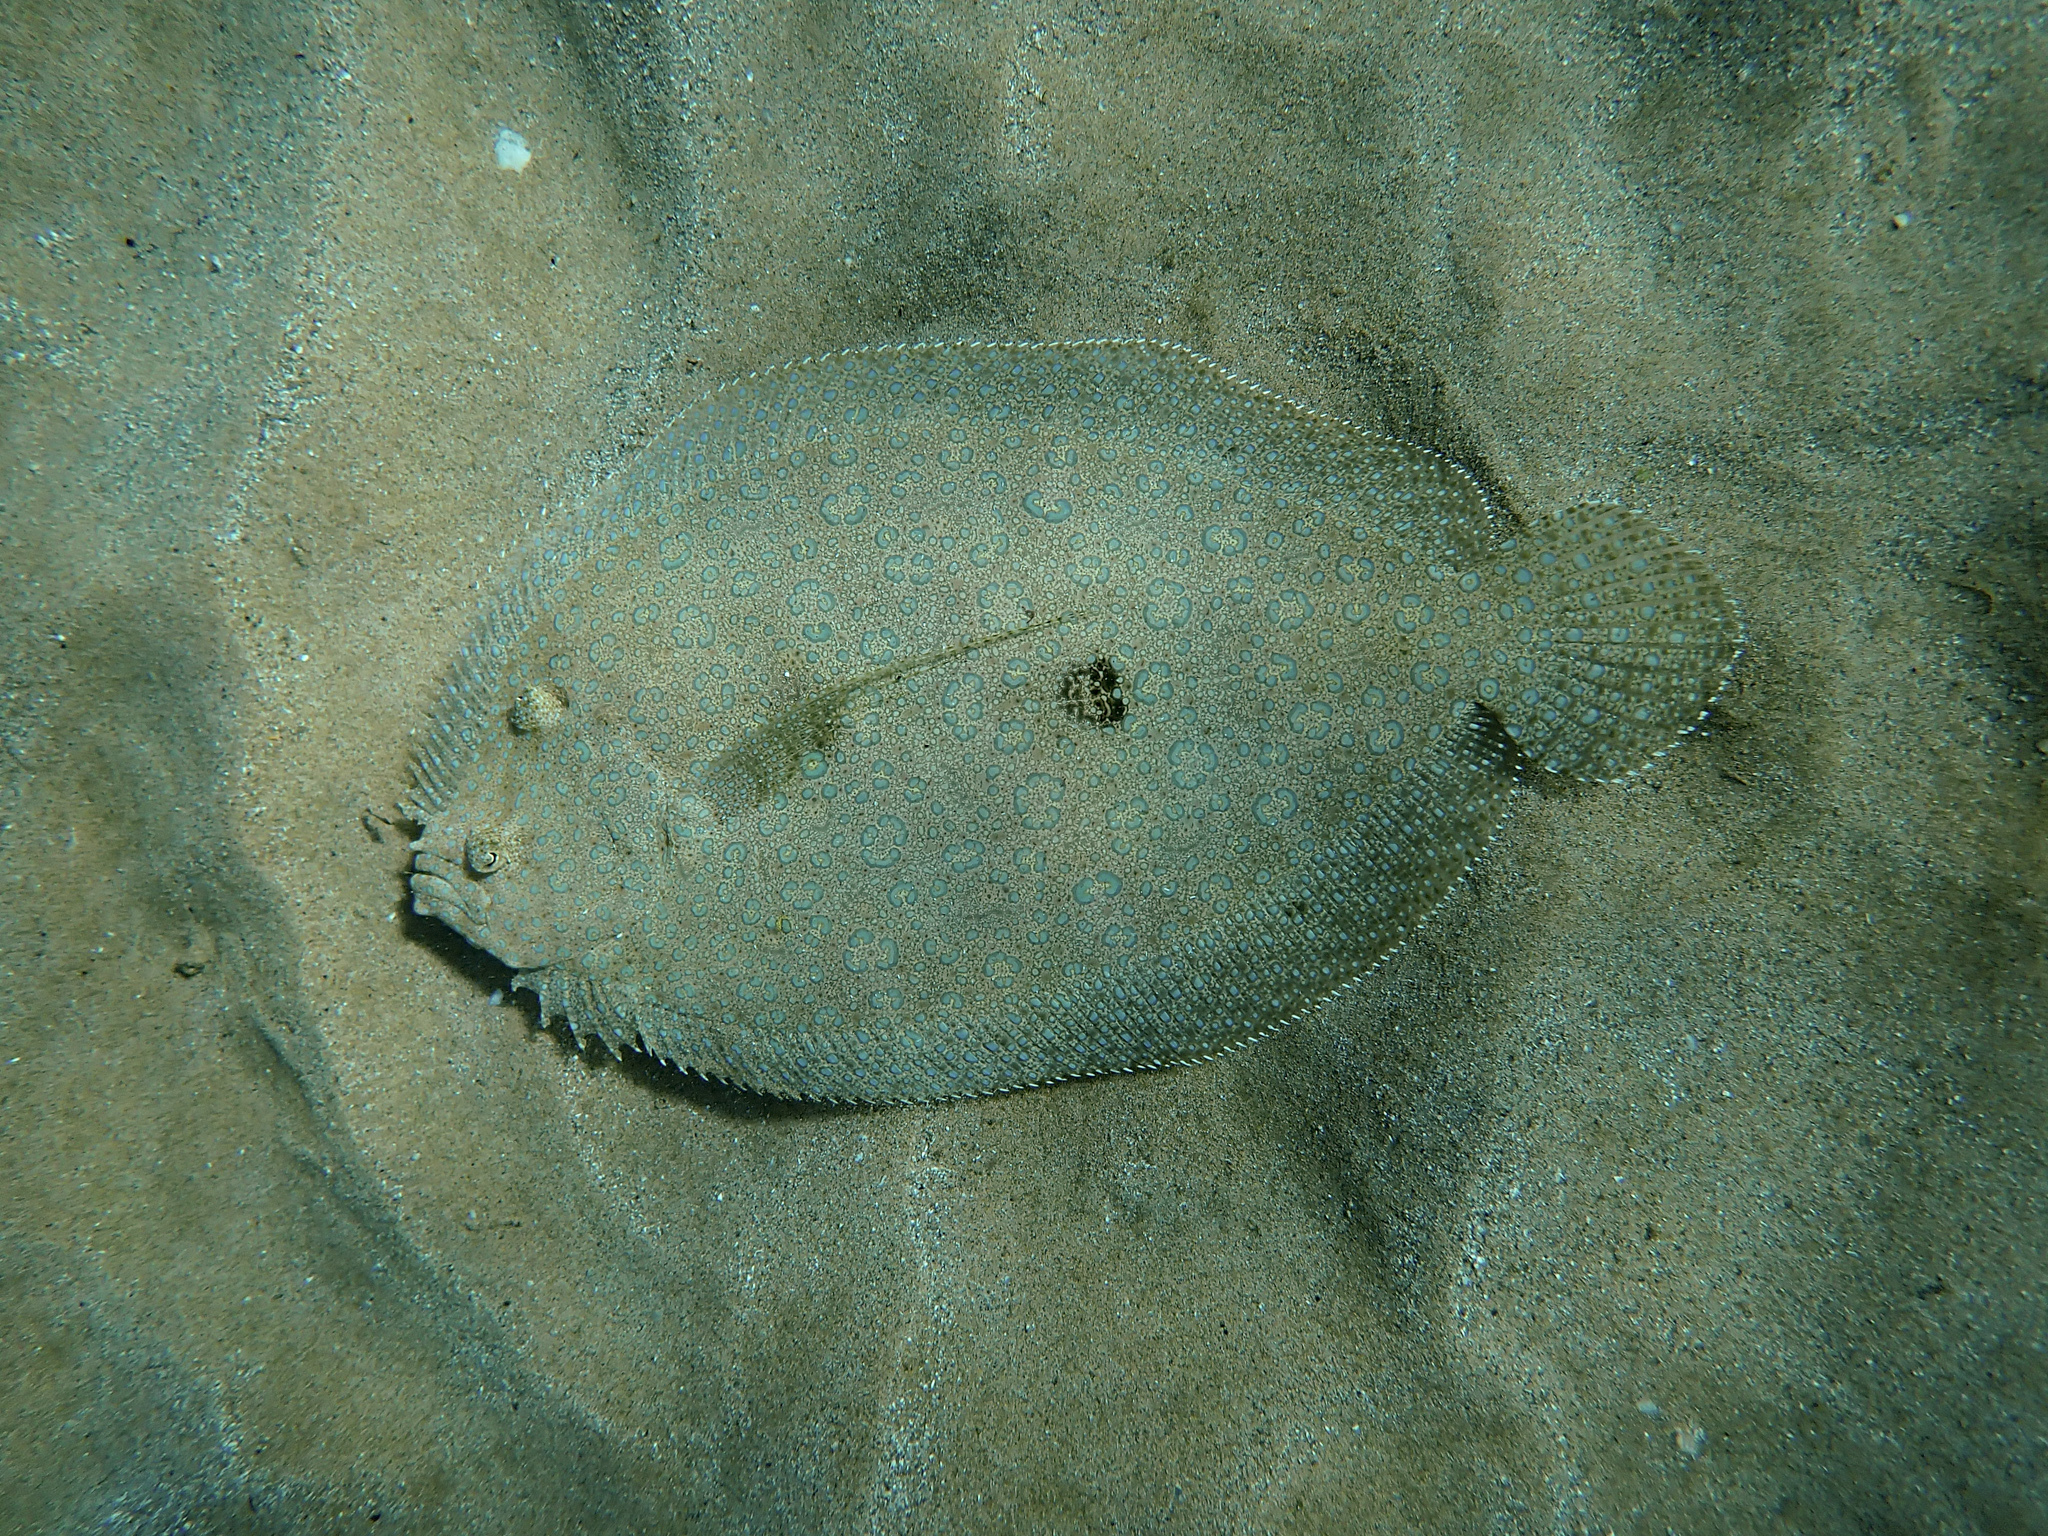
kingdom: Animalia
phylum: Chordata
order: Pleuronectiformes
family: Bothidae
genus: Bothus
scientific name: Bothus mancus
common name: Flowery flounder
